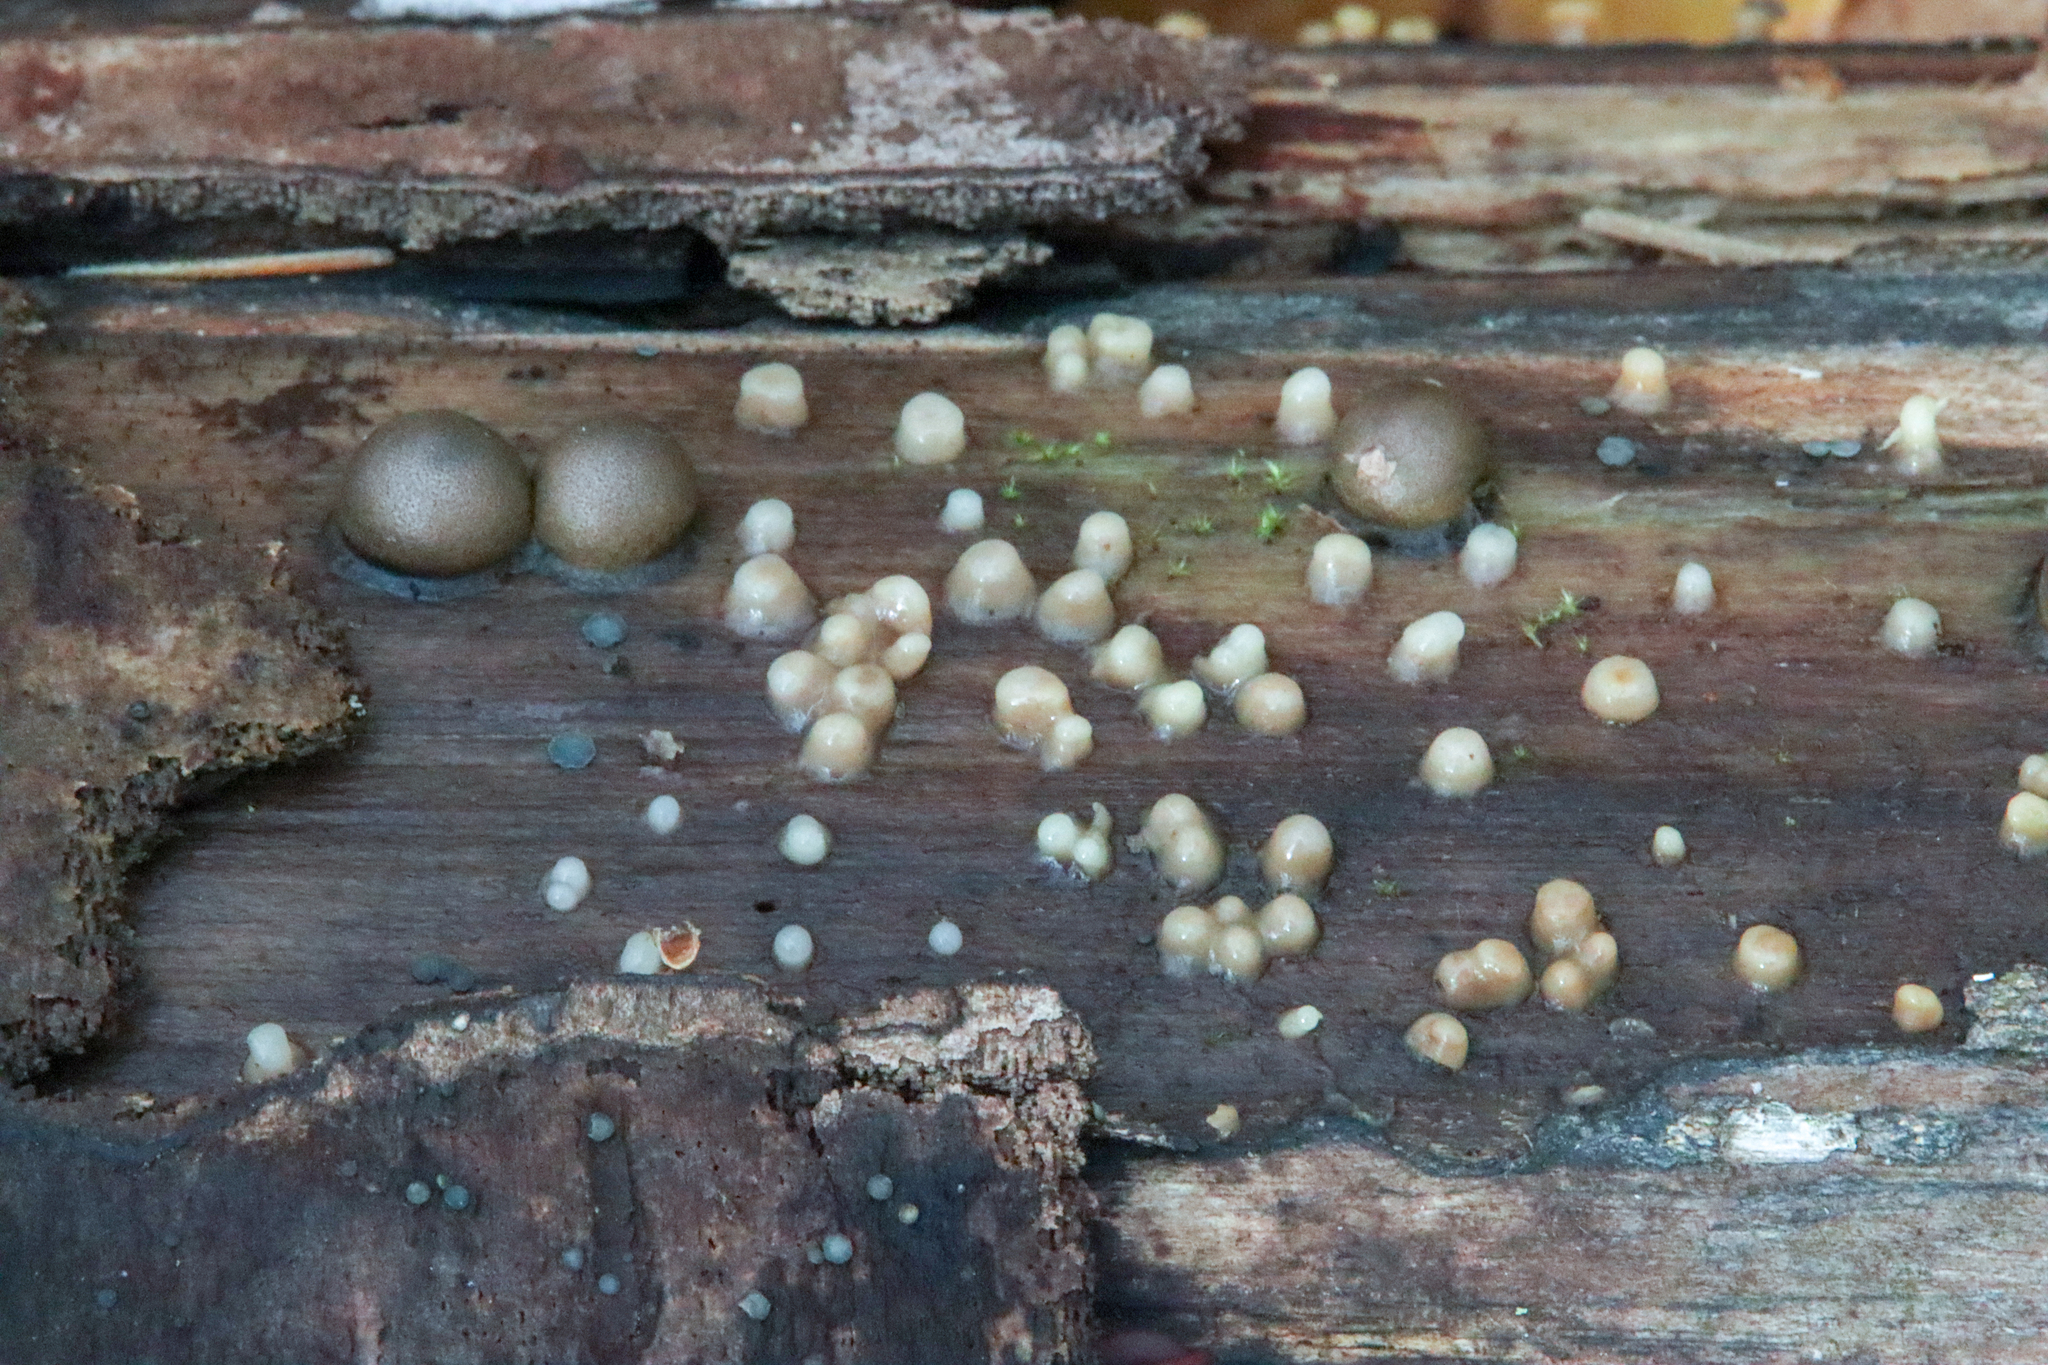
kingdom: Fungi
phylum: Basidiomycota
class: Atractiellomycetes
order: Atractiellales
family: Phleogenaceae
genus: Helicogloea
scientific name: Helicogloea compressa
